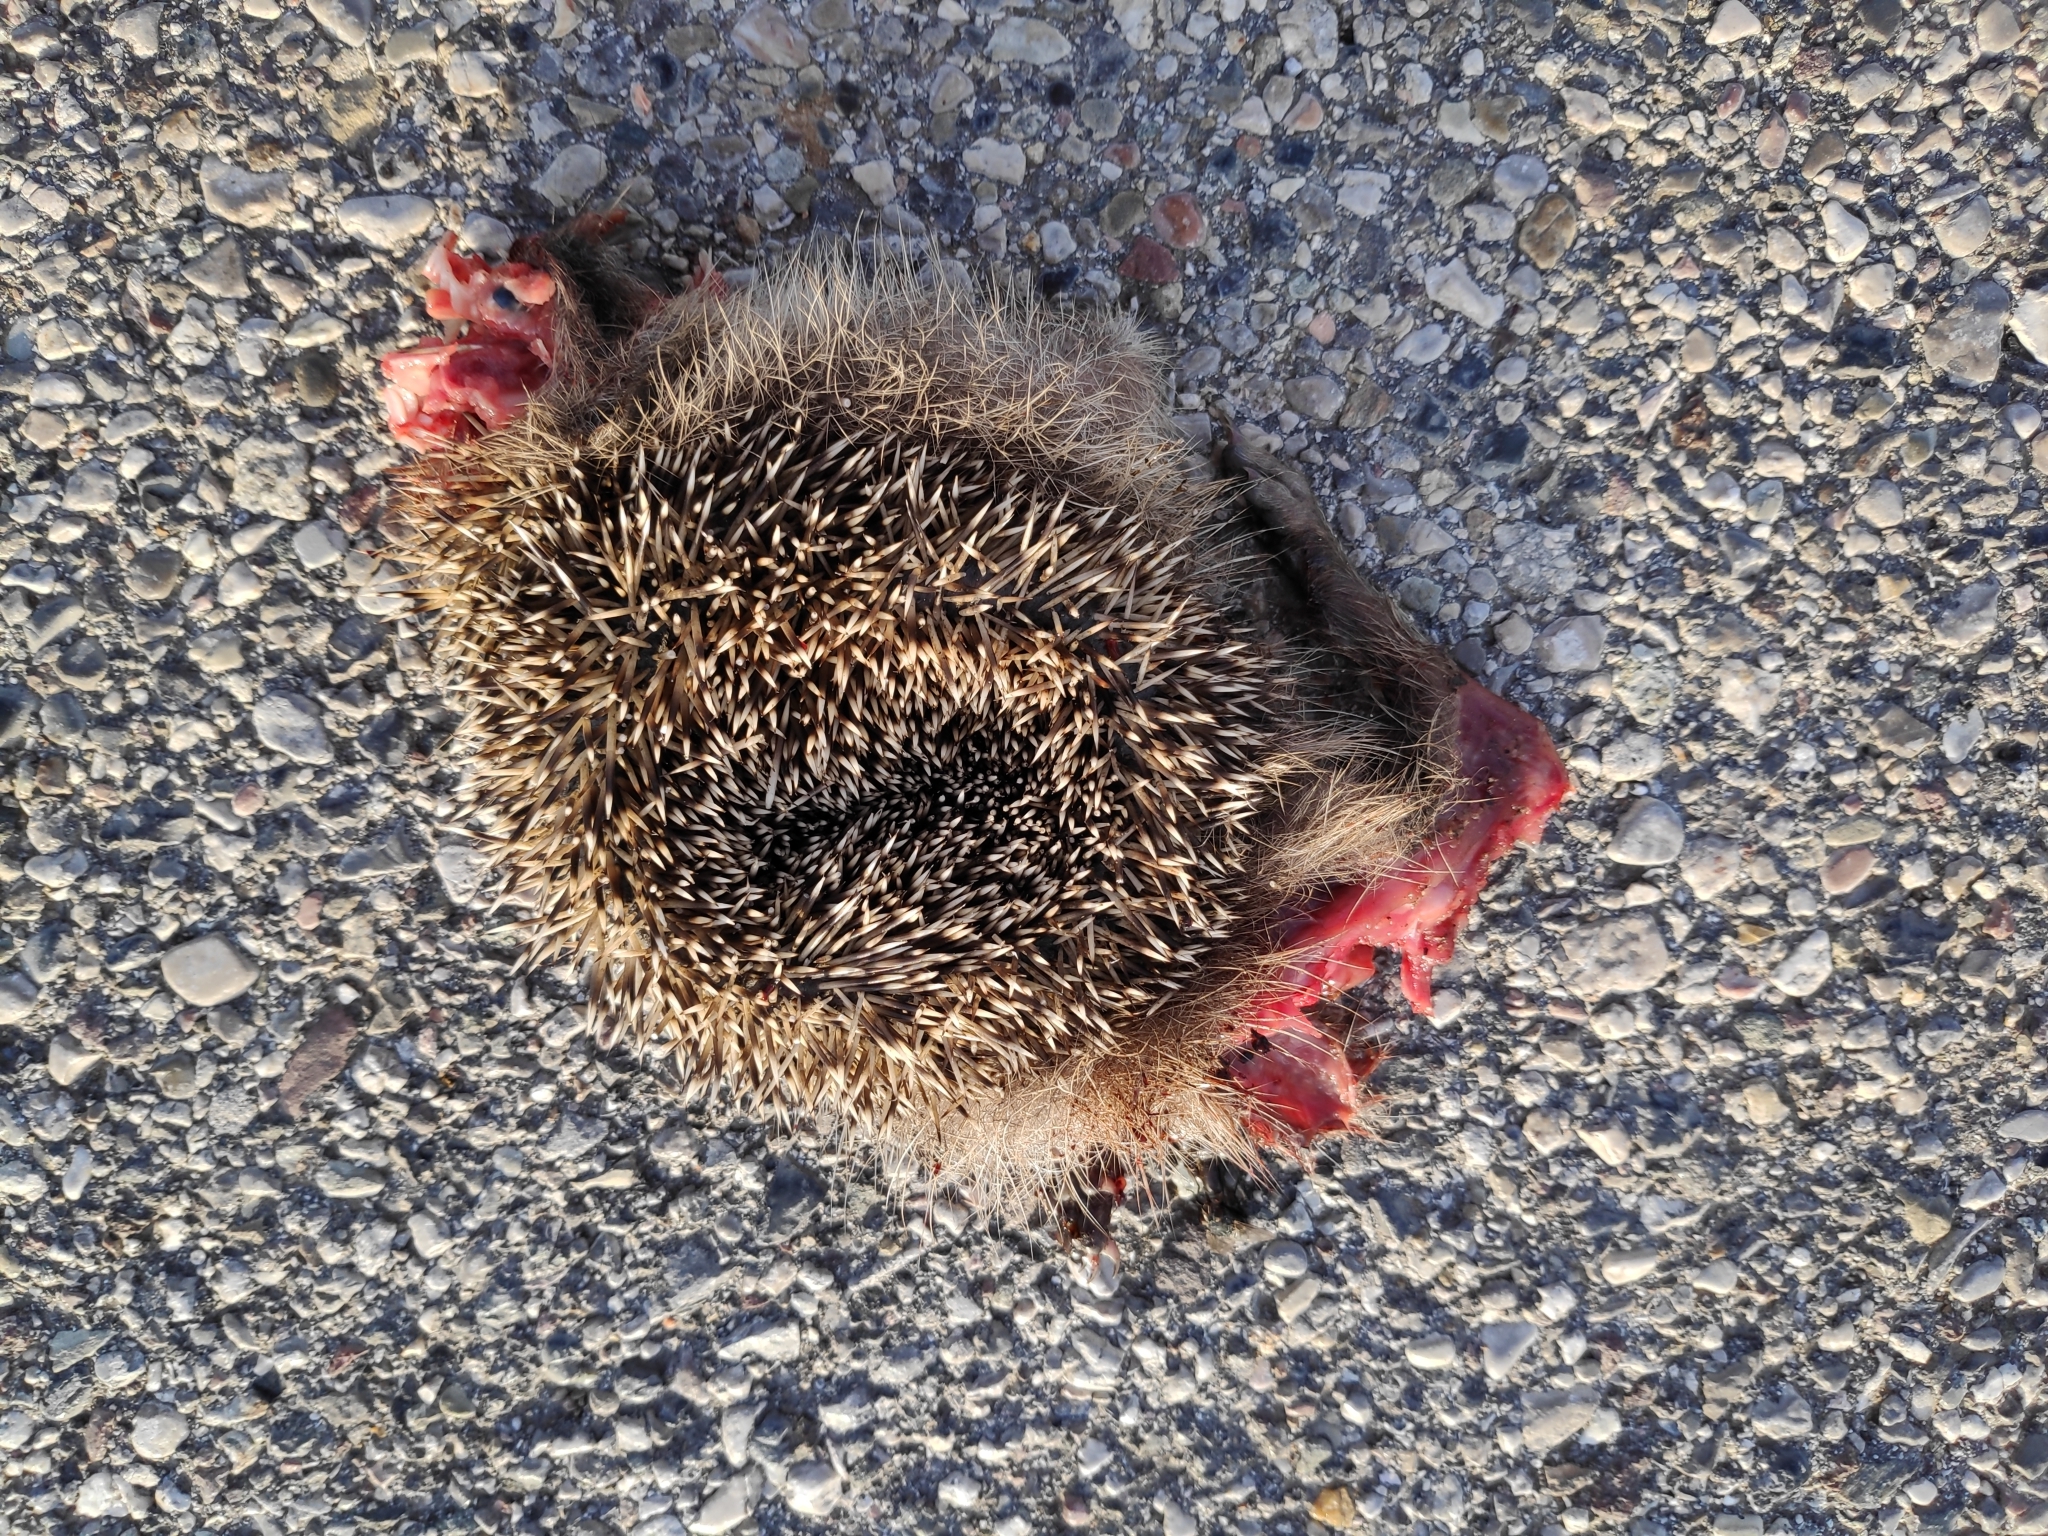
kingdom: Animalia
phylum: Chordata
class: Mammalia
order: Erinaceomorpha
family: Erinaceidae
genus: Erinaceus
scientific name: Erinaceus europaeus
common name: West european hedgehog
